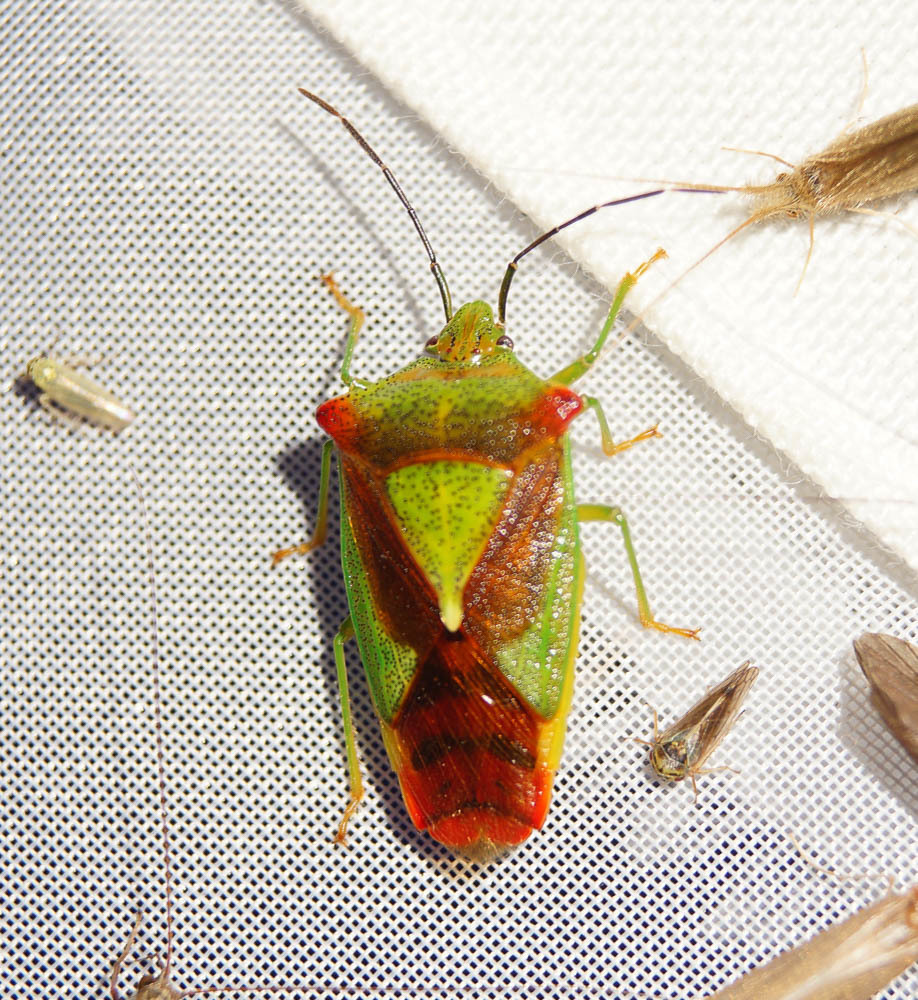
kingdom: Animalia
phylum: Arthropoda
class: Insecta
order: Hemiptera
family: Acanthosomatidae
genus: Acanthosoma
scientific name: Acanthosoma haemorrhoidale
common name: Hawthorn shieldbug
